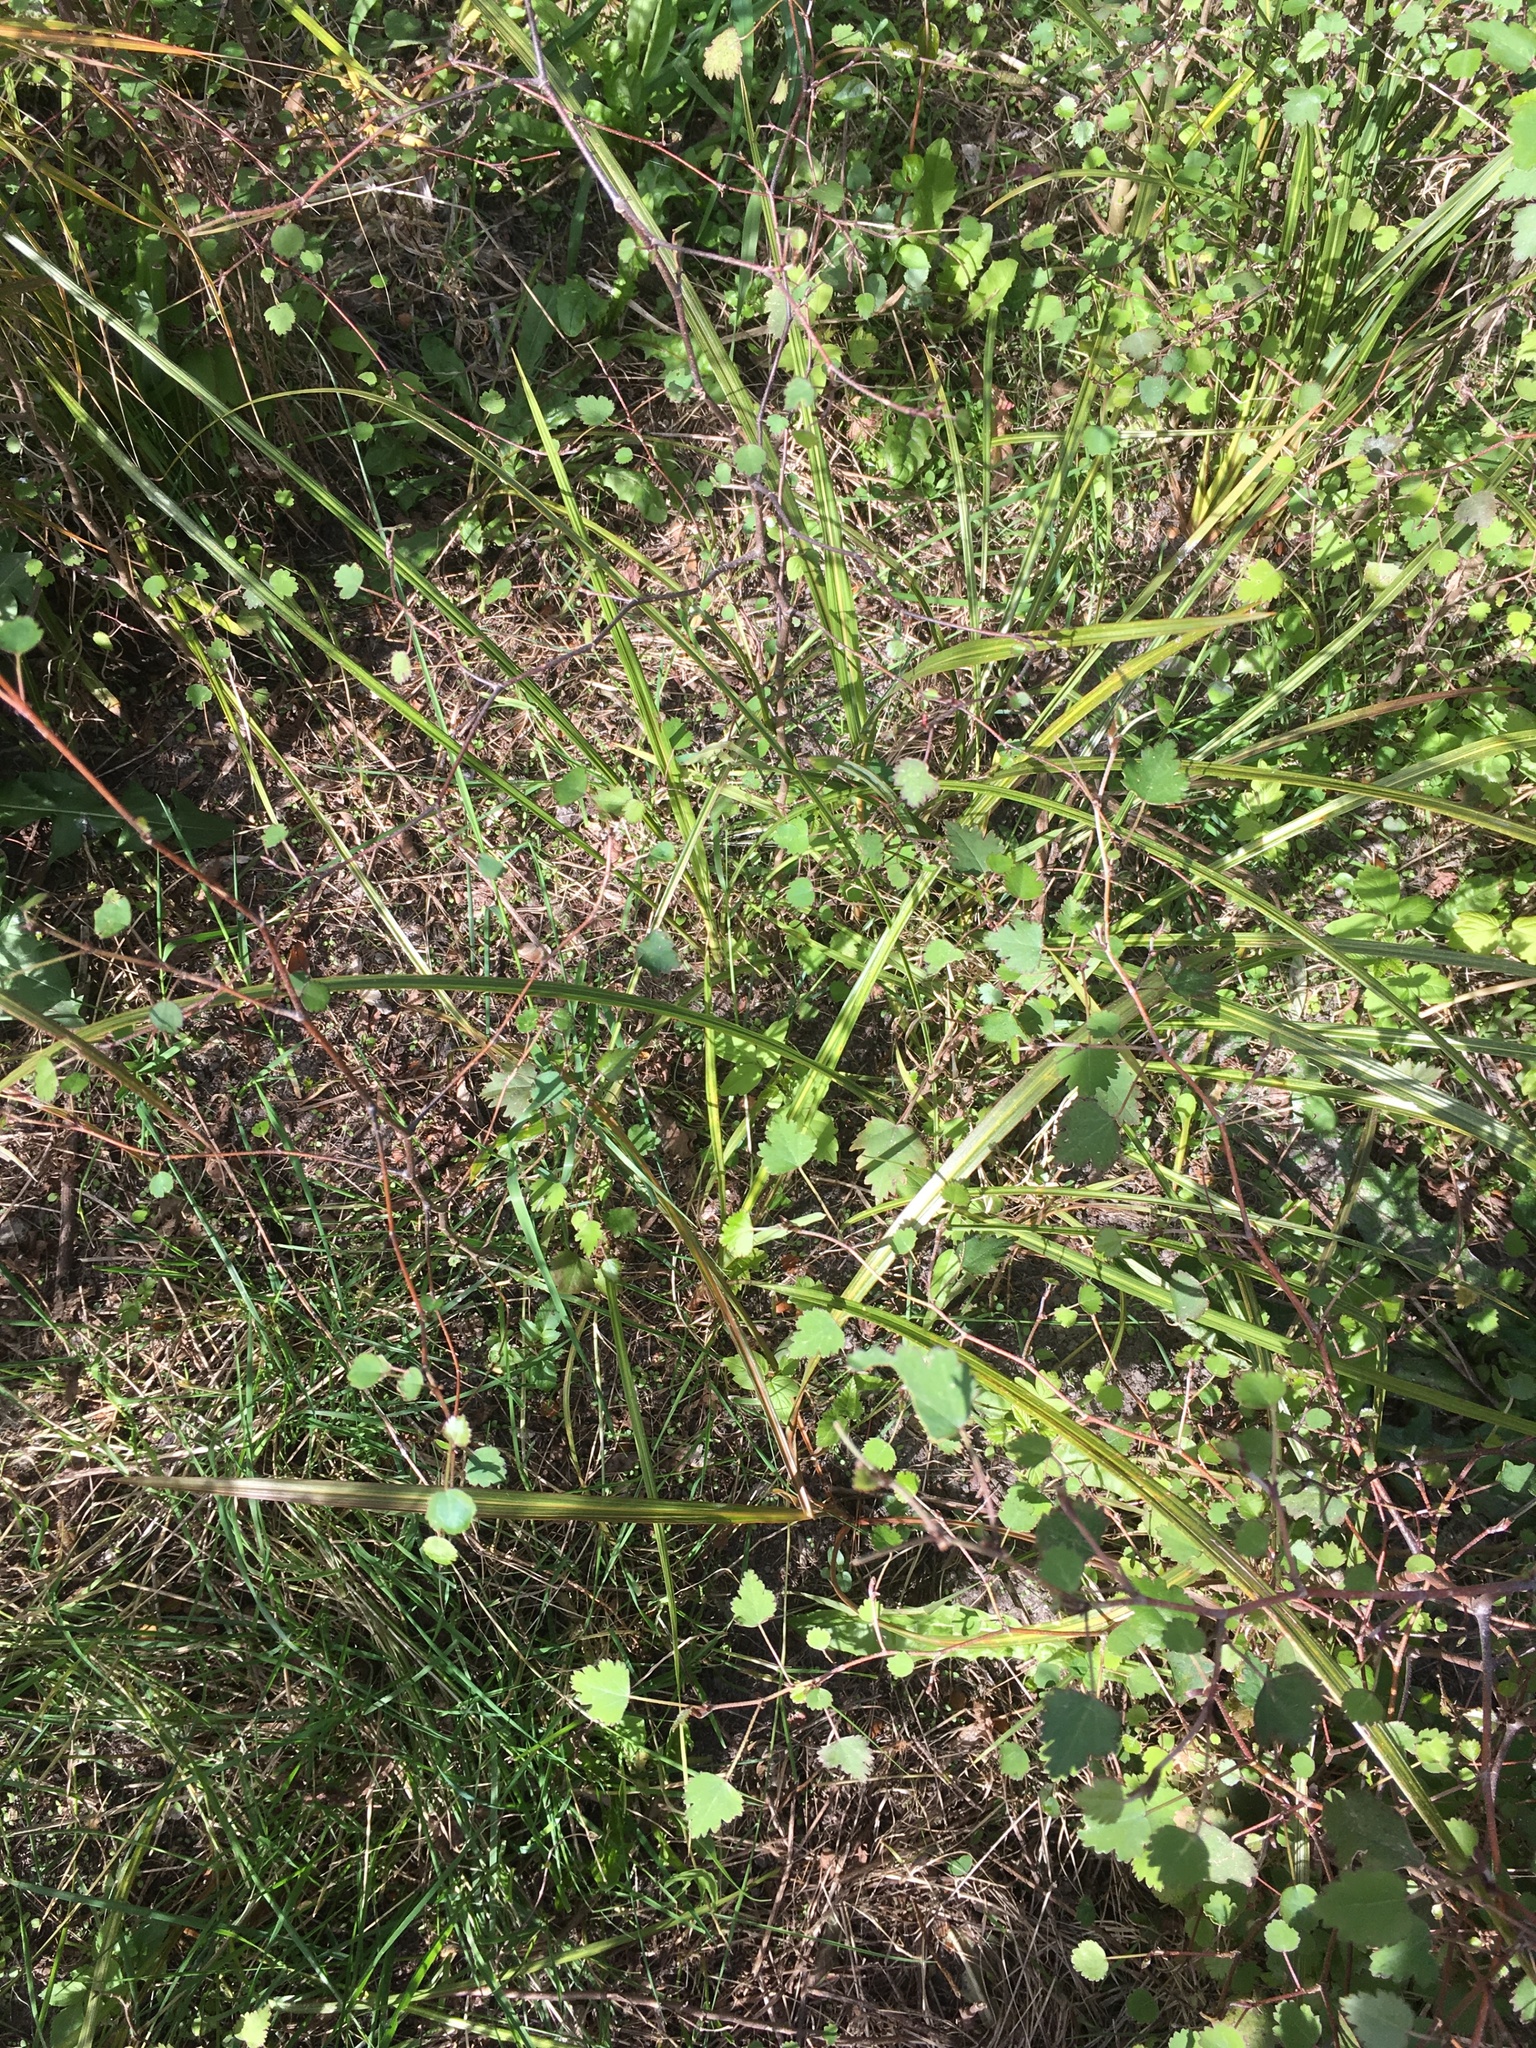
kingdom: Plantae
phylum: Tracheophyta
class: Liliopsida
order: Asparagales
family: Asparagaceae
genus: Cordyline
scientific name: Cordyline australis
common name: Cabbage-palm
